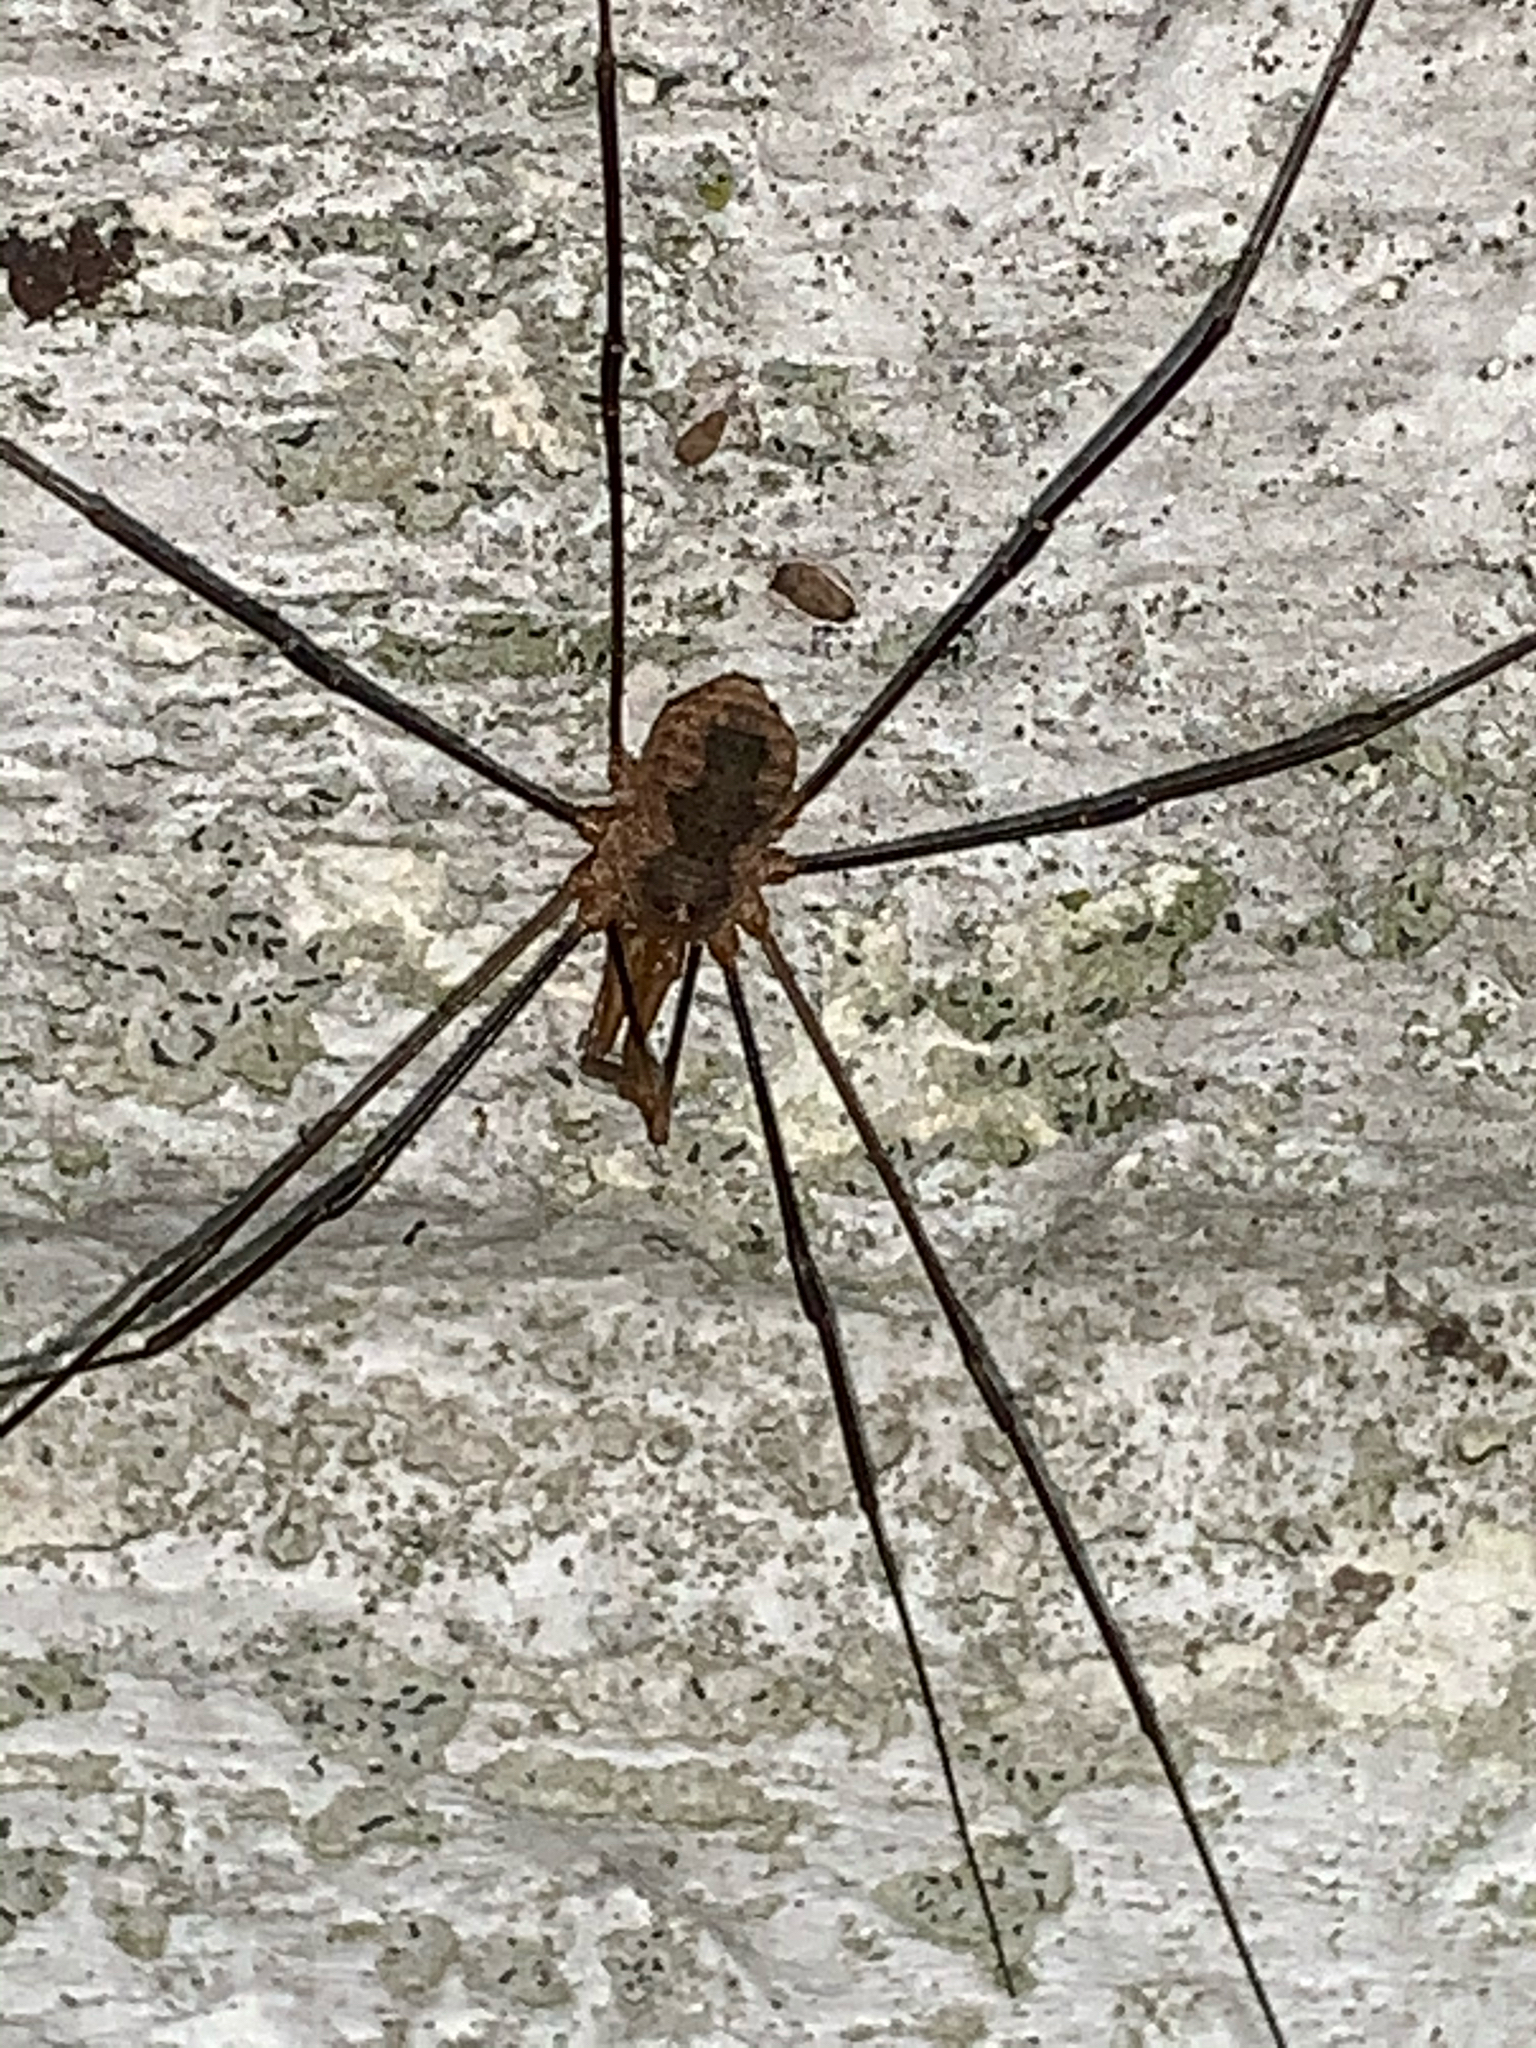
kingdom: Animalia
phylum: Arthropoda
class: Arachnida
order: Opiliones
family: Phalangiidae
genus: Phalangium
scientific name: Phalangium opilio
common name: Daddy longleg
